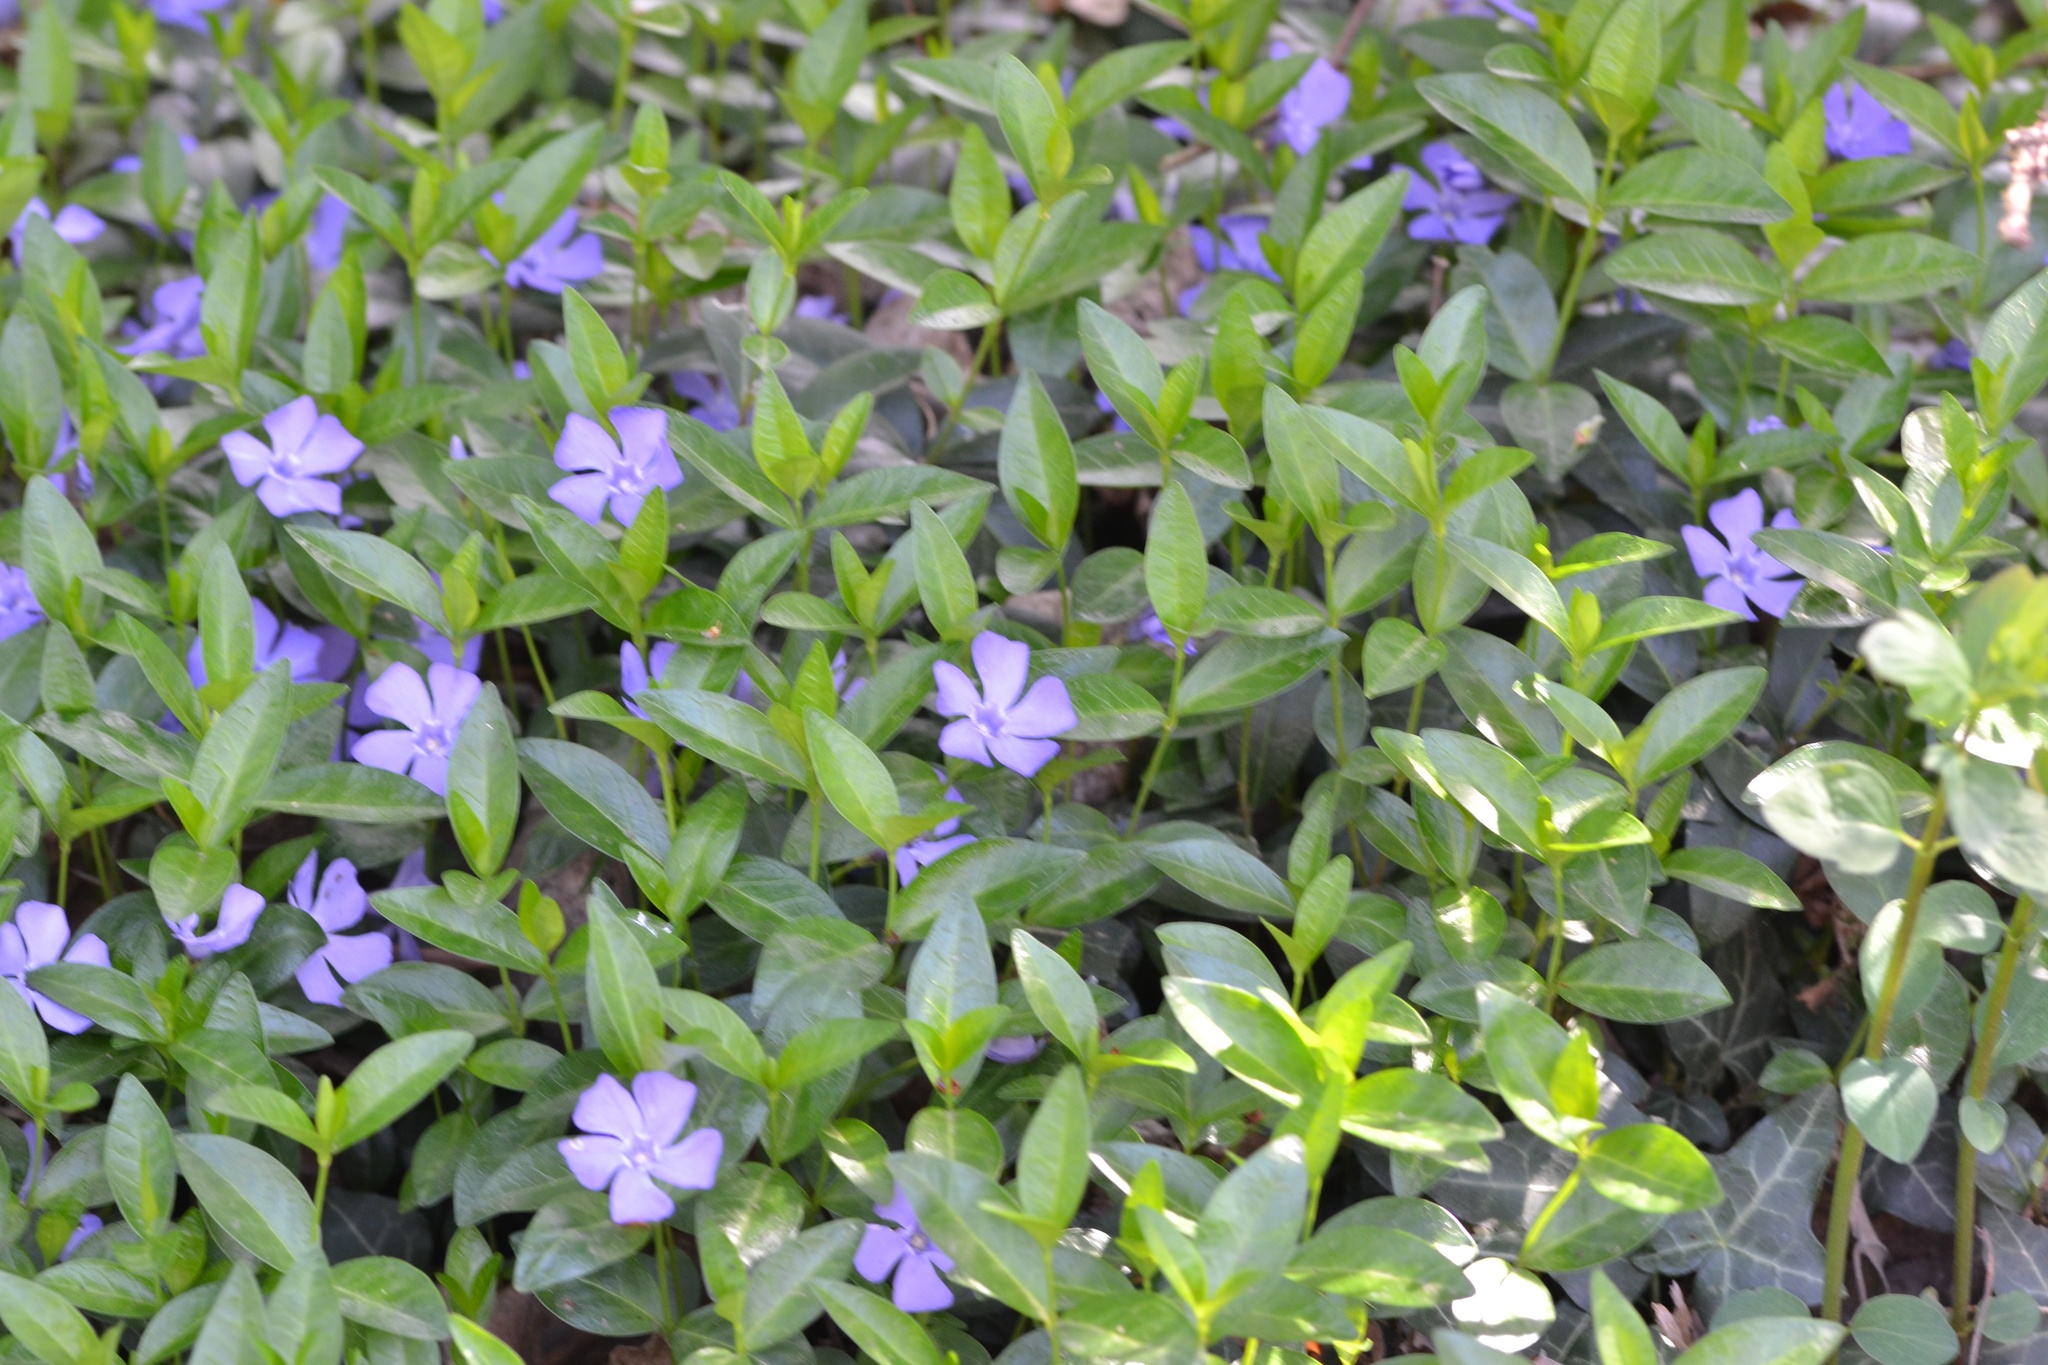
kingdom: Plantae
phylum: Tracheophyta
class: Magnoliopsida
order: Gentianales
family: Apocynaceae
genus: Vinca
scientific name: Vinca minor
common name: Lesser periwinkle
